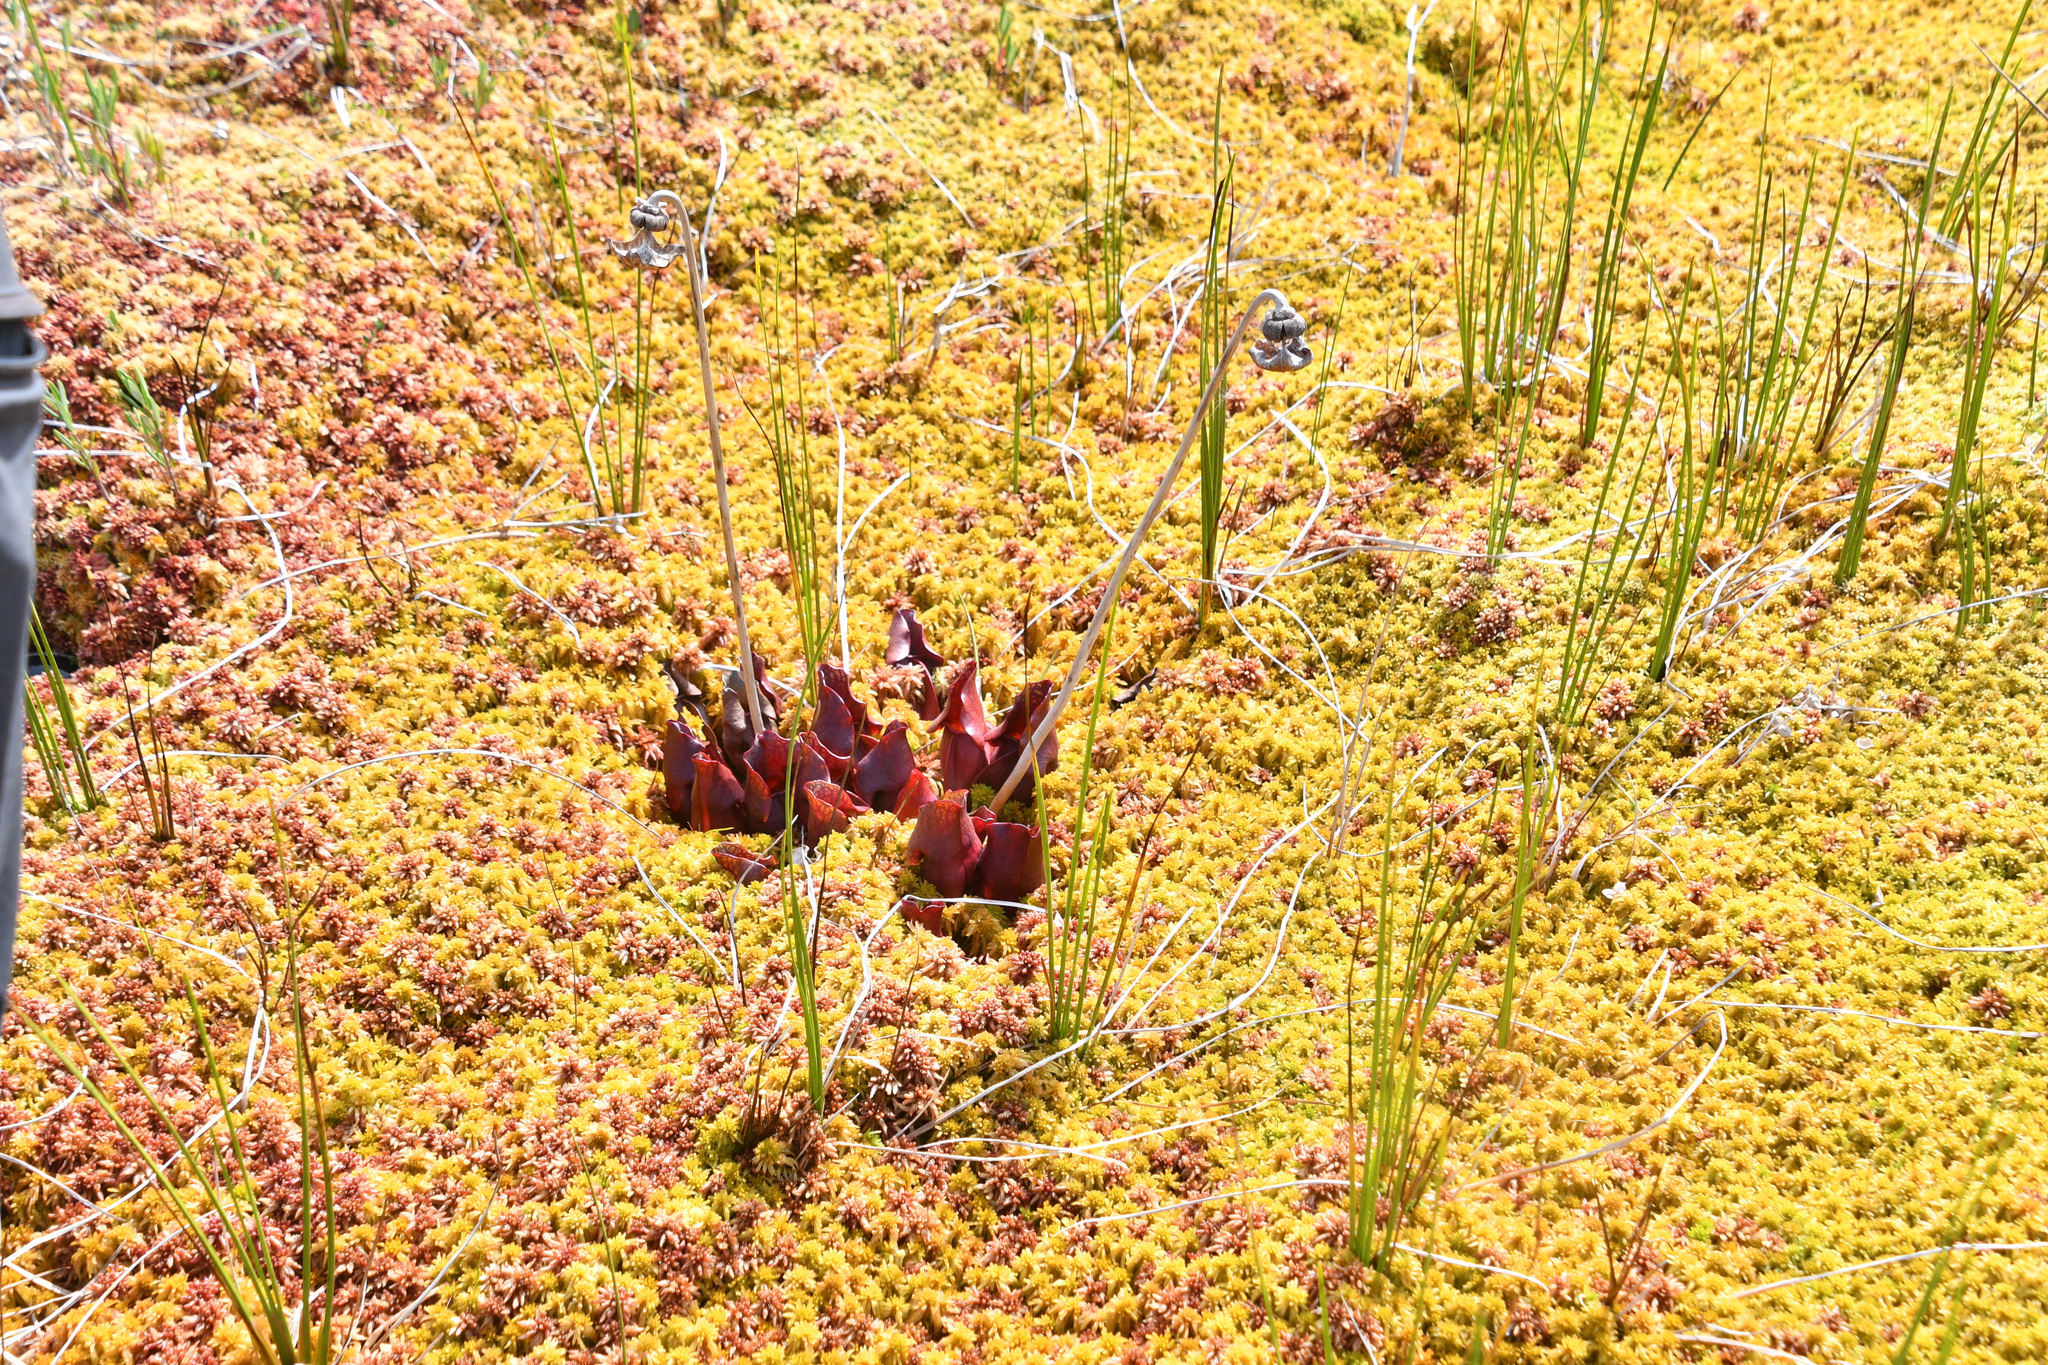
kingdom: Plantae
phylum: Tracheophyta
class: Magnoliopsida
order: Ericales
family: Sarraceniaceae
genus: Sarracenia
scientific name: Sarracenia purpurea
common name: Pitcherplant
